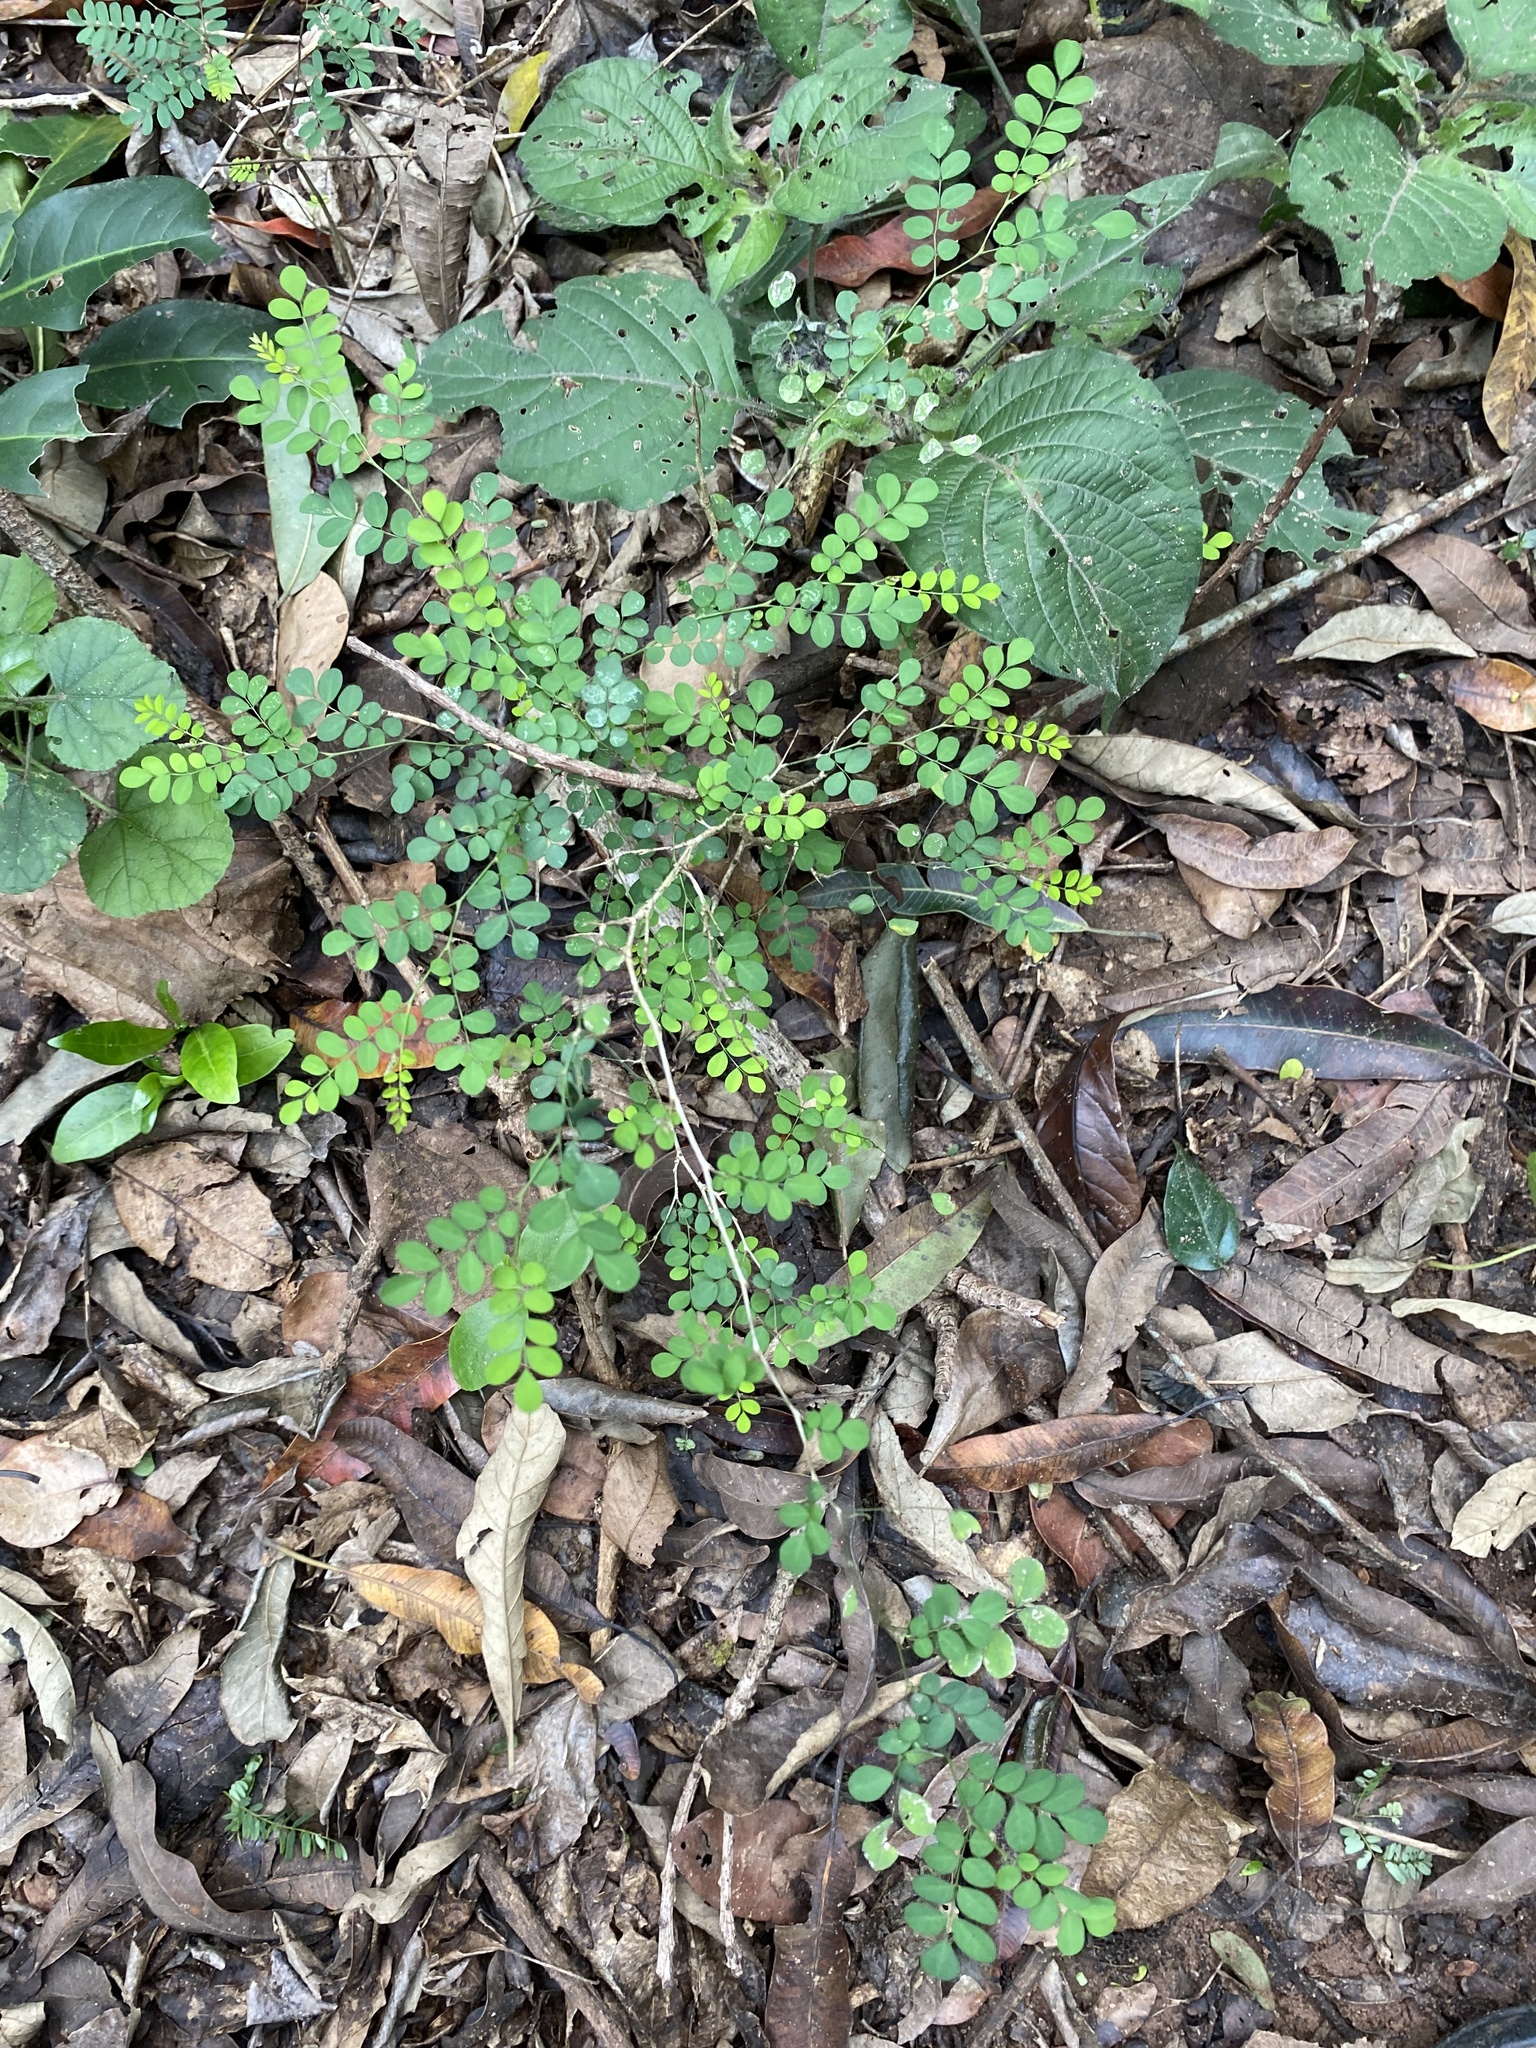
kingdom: Plantae
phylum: Tracheophyta
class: Magnoliopsida
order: Fabales
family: Fabaceae
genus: Indigofera
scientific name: Indigofera
